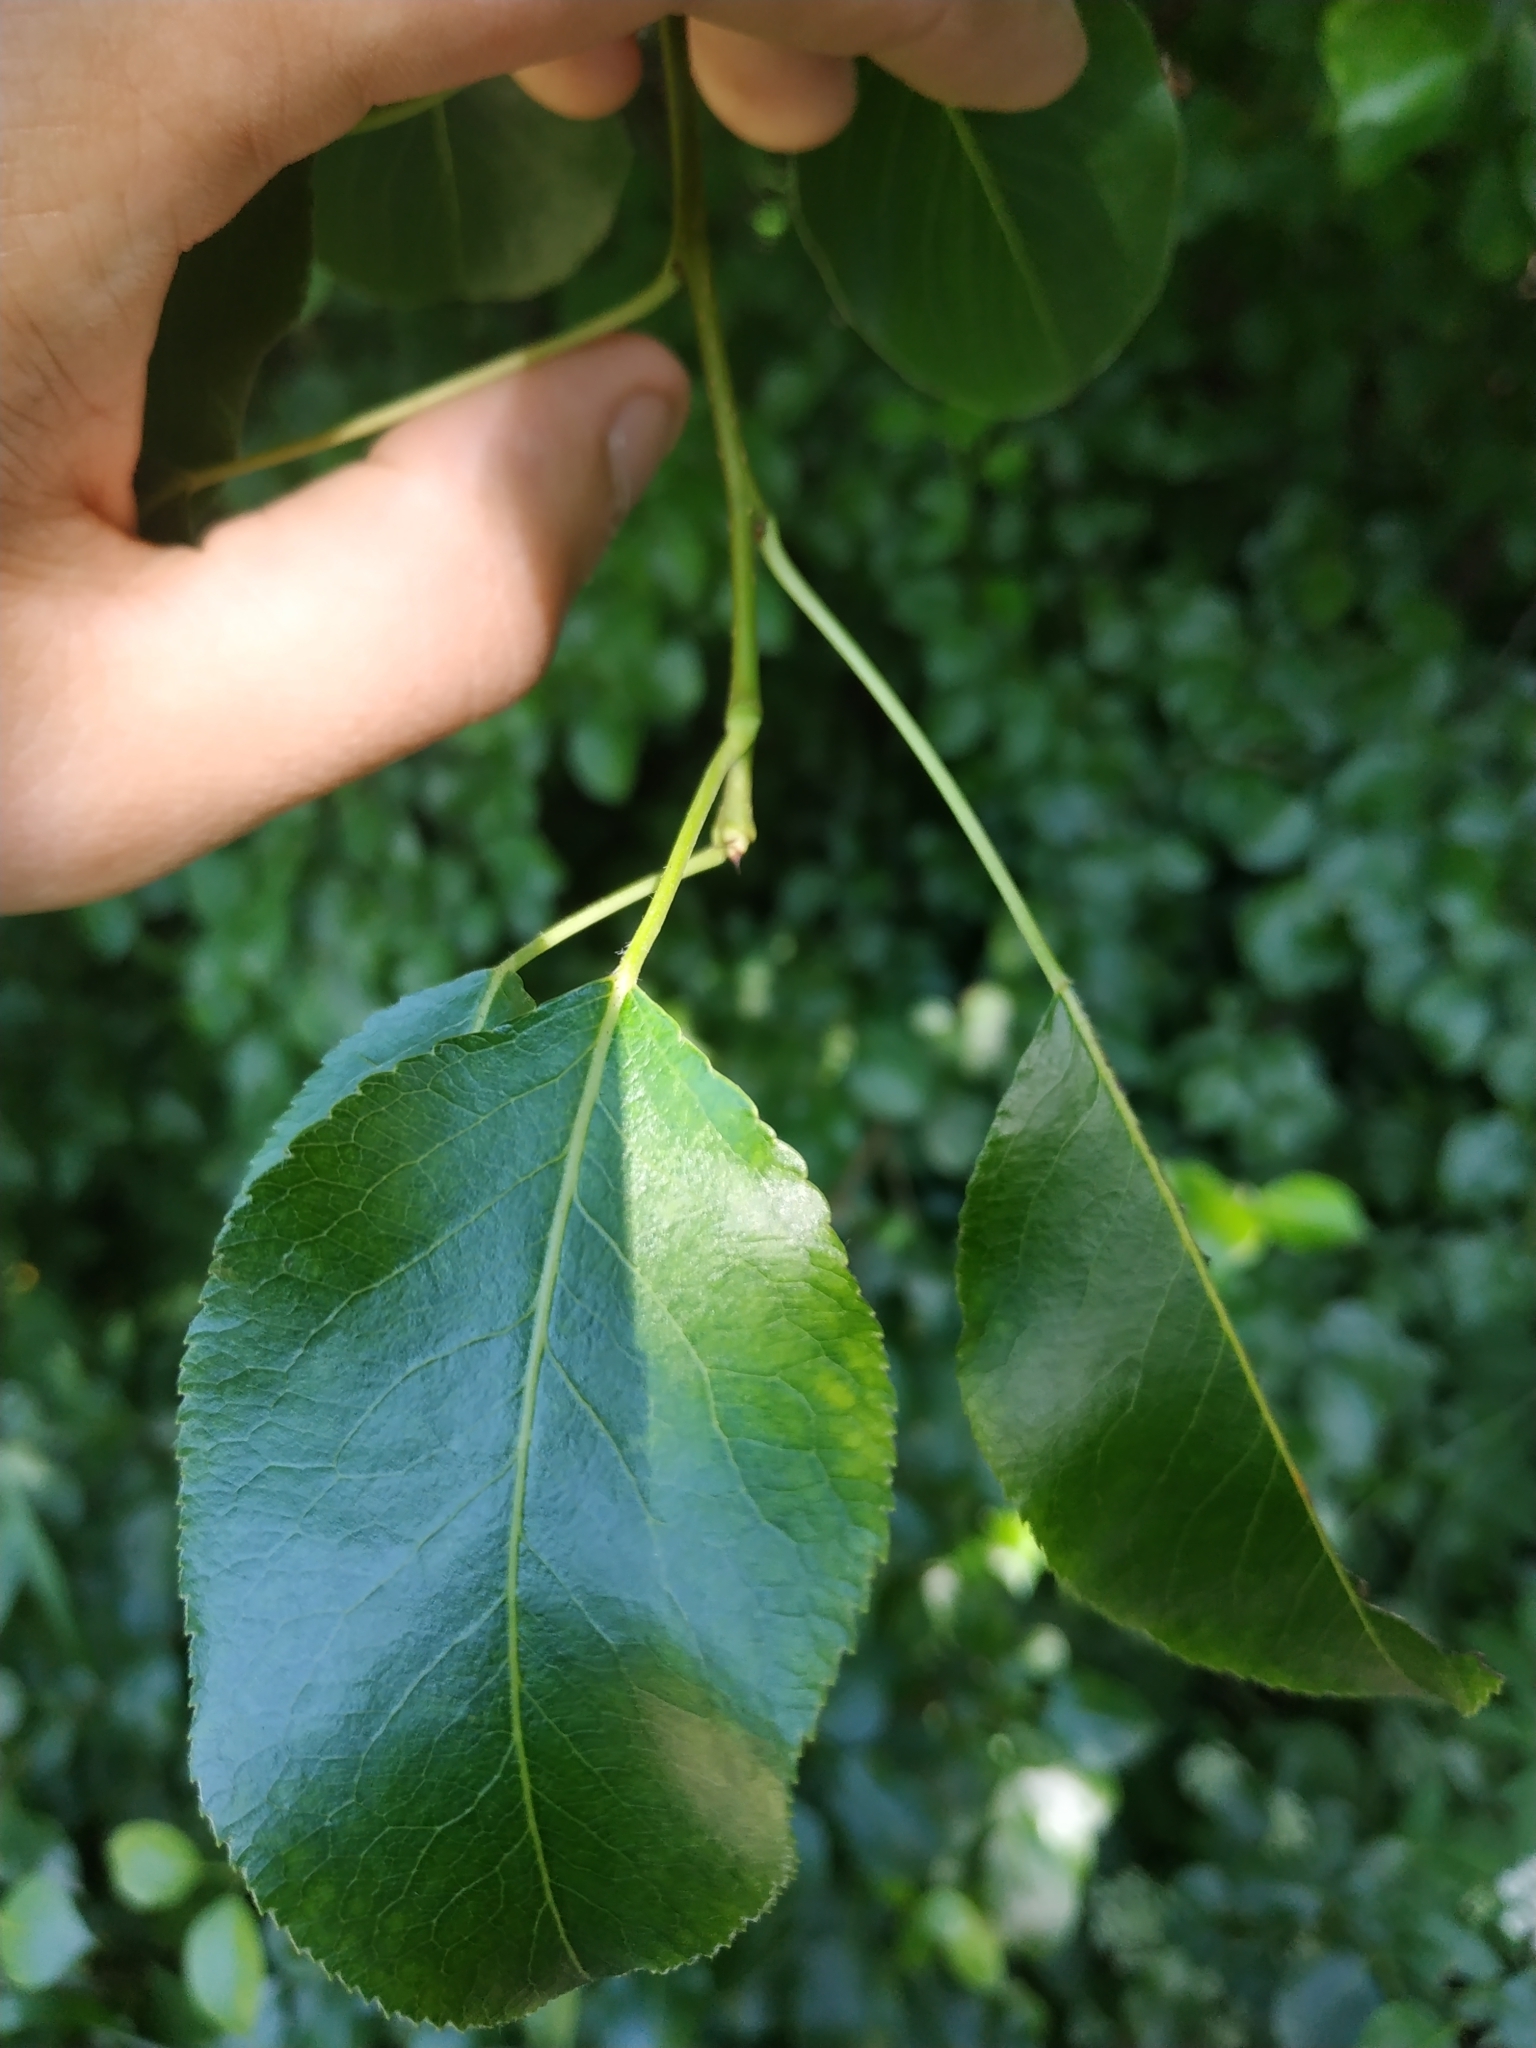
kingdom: Plantae
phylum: Tracheophyta
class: Magnoliopsida
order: Rosales
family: Rosaceae
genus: Pyrus
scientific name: Pyrus communis
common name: Pear
